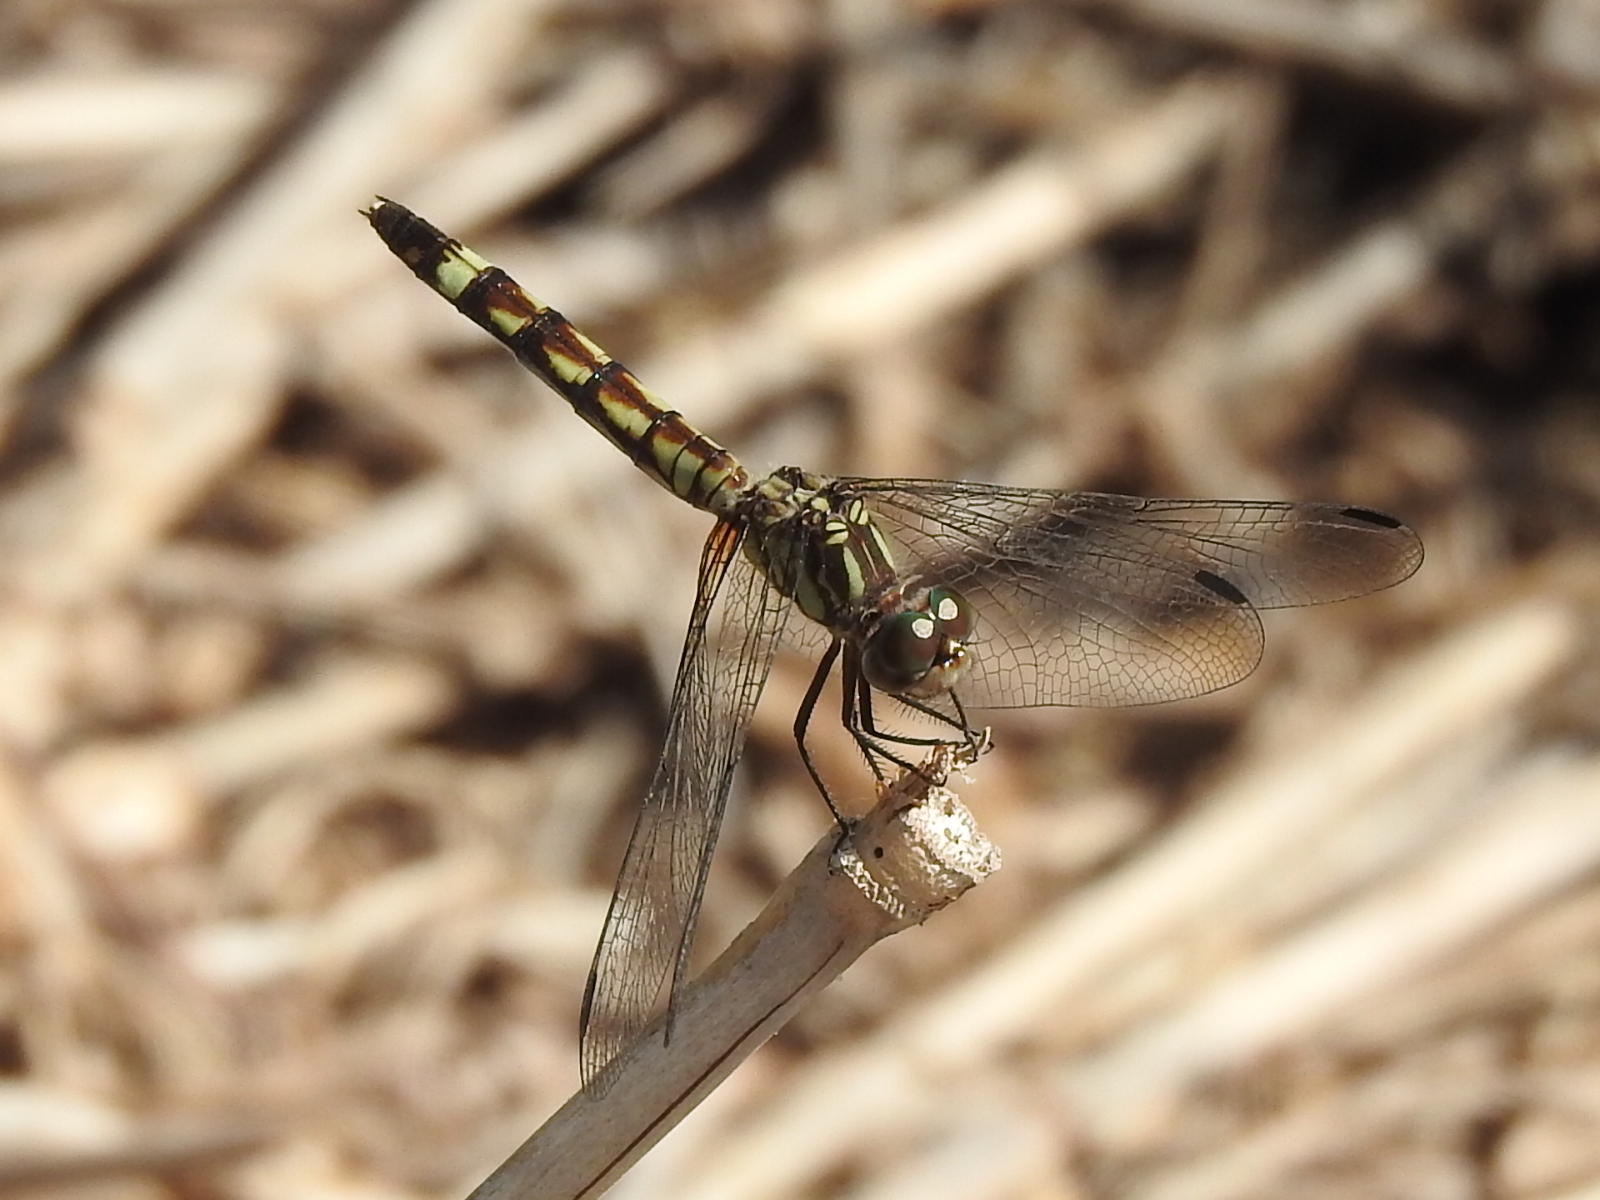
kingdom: Animalia
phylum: Arthropoda
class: Insecta
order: Odonata
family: Libellulidae
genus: Micrathyria
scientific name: Micrathyria hagenii
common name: Thornbush dasher
